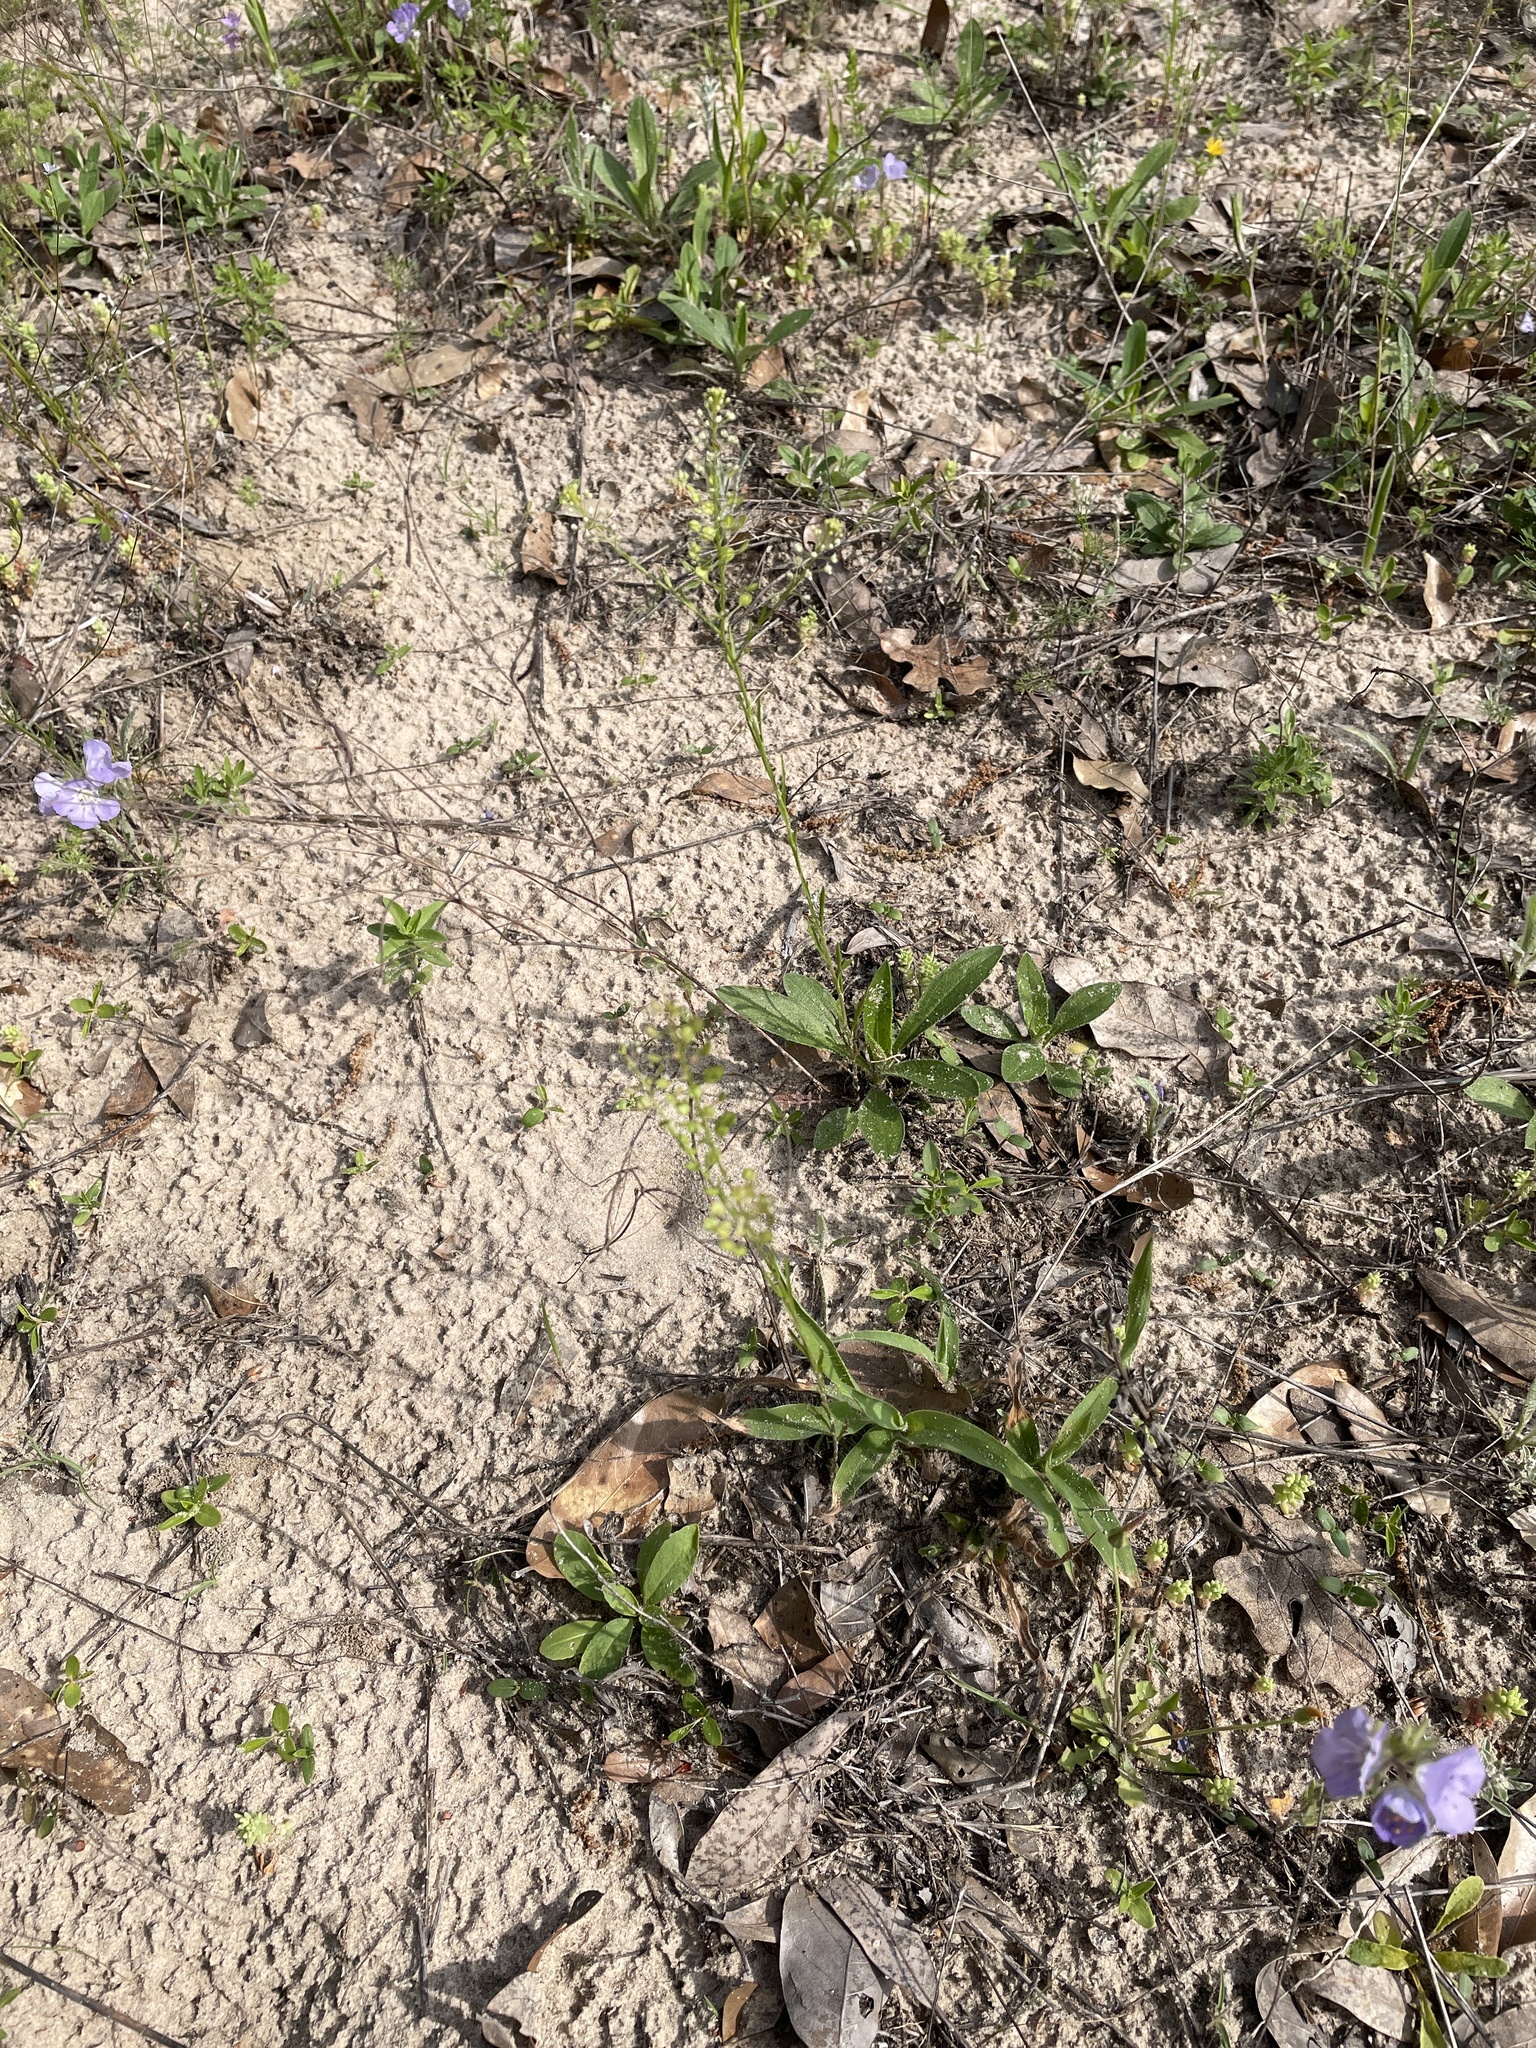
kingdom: Plantae
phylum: Tracheophyta
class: Magnoliopsida
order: Brassicales
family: Brassicaceae
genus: Lepidium
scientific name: Lepidium virginicum
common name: Least pepperwort
